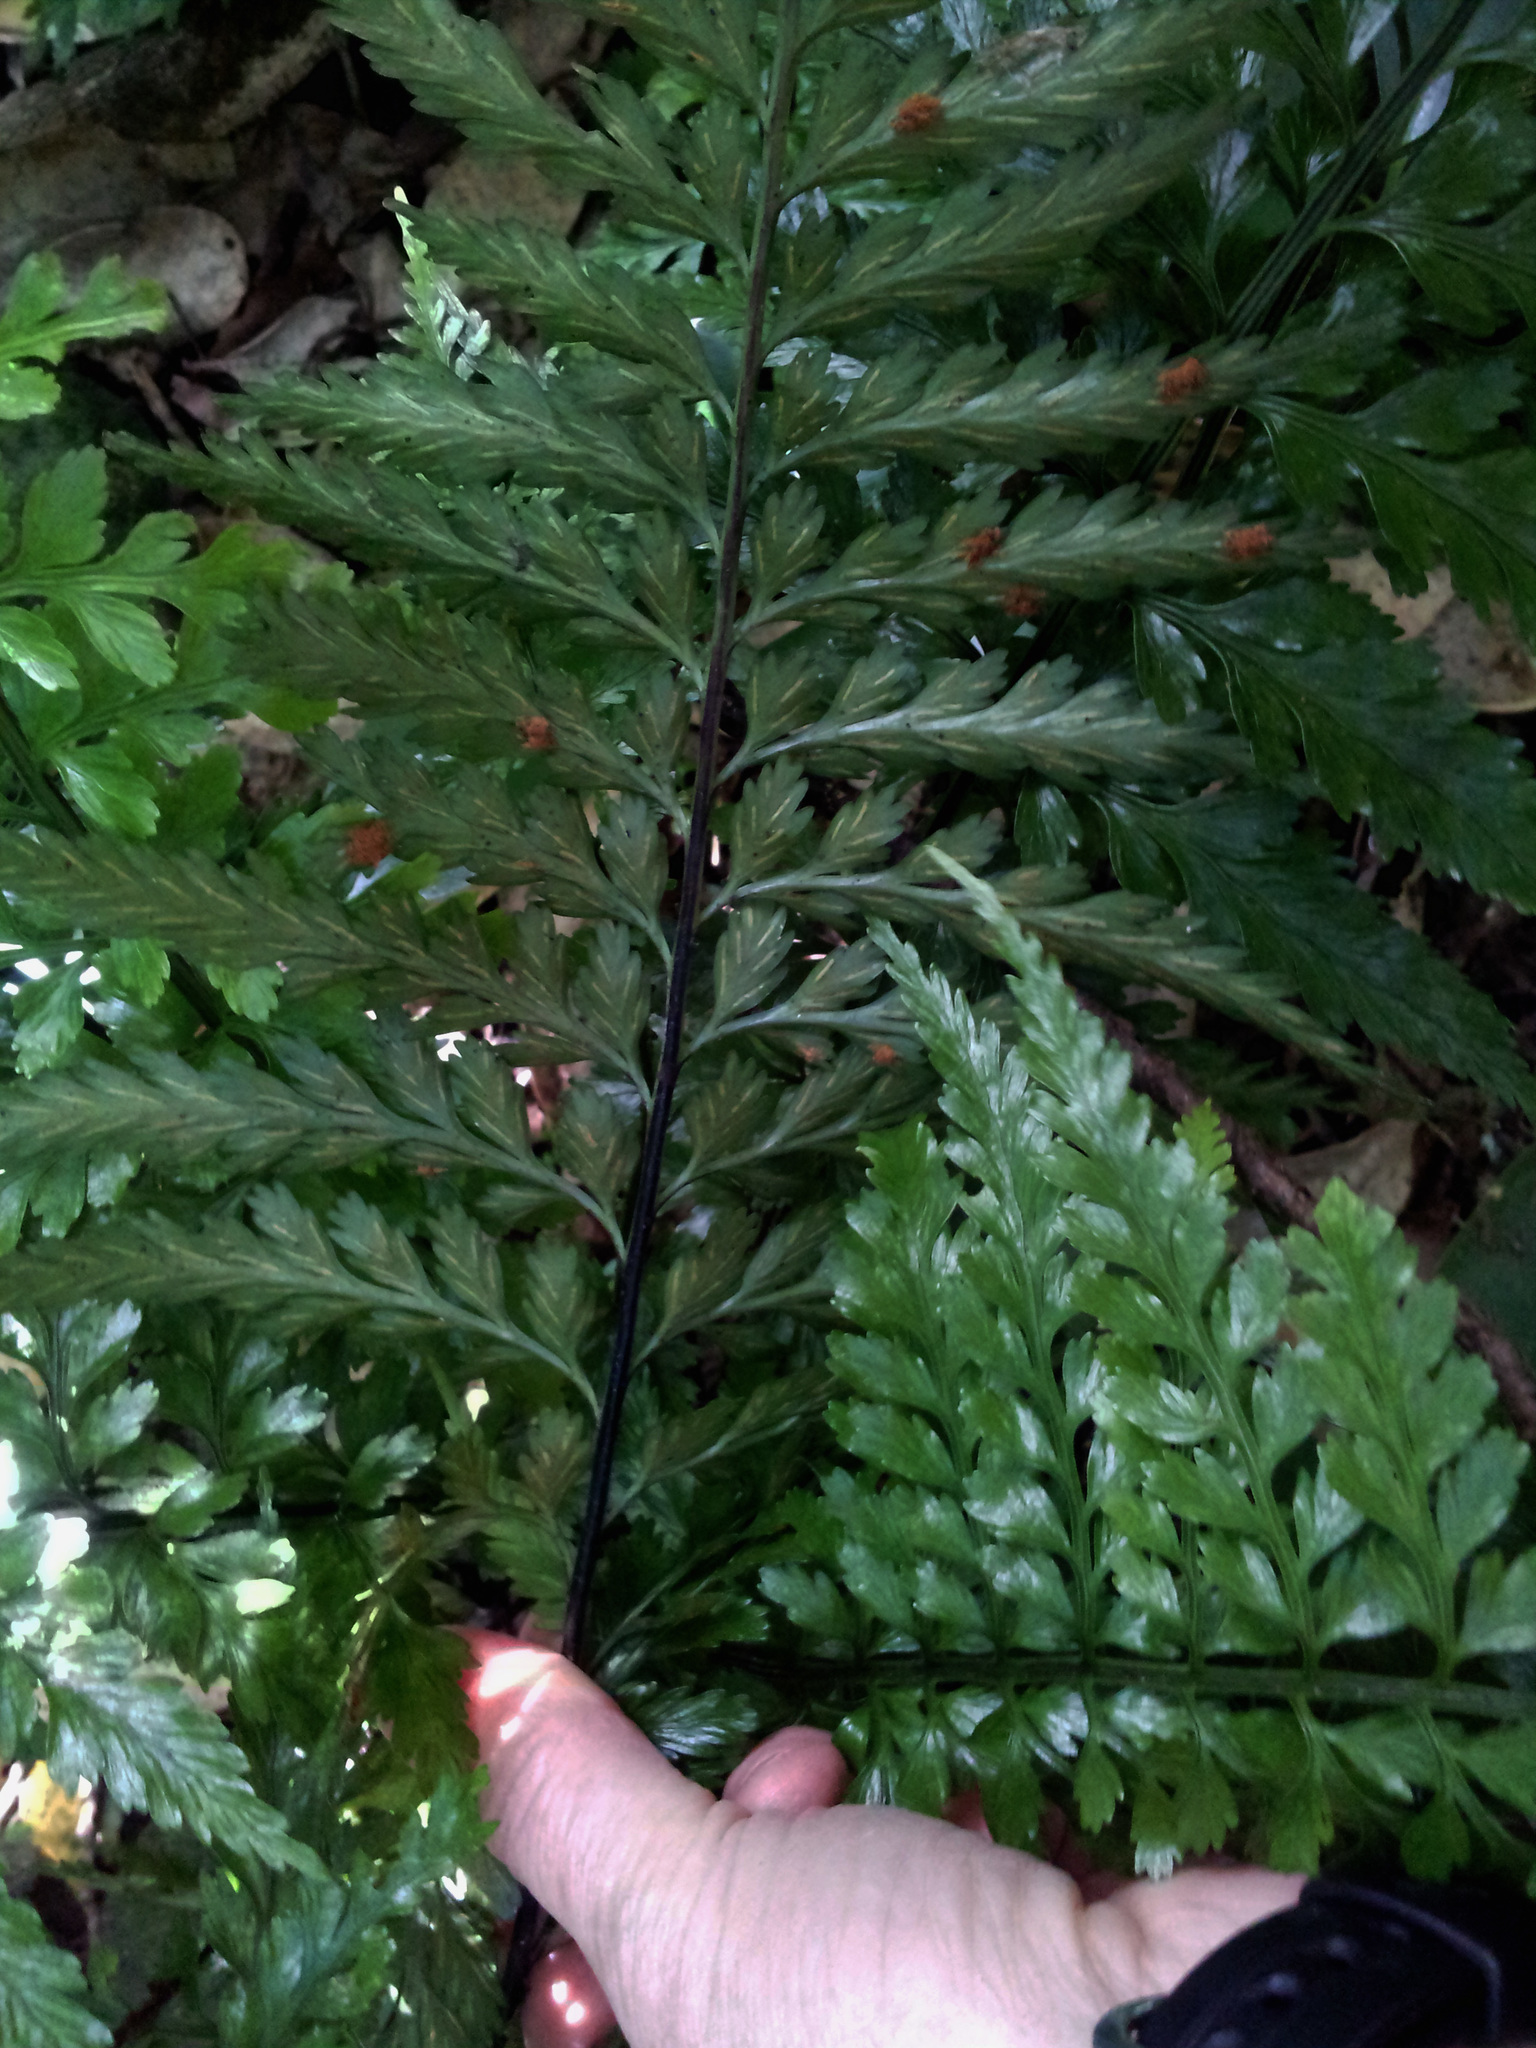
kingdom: Plantae
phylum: Tracheophyta
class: Polypodiopsida
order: Polypodiales
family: Aspleniaceae
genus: Asplenium
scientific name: Asplenium lamprophyllum
